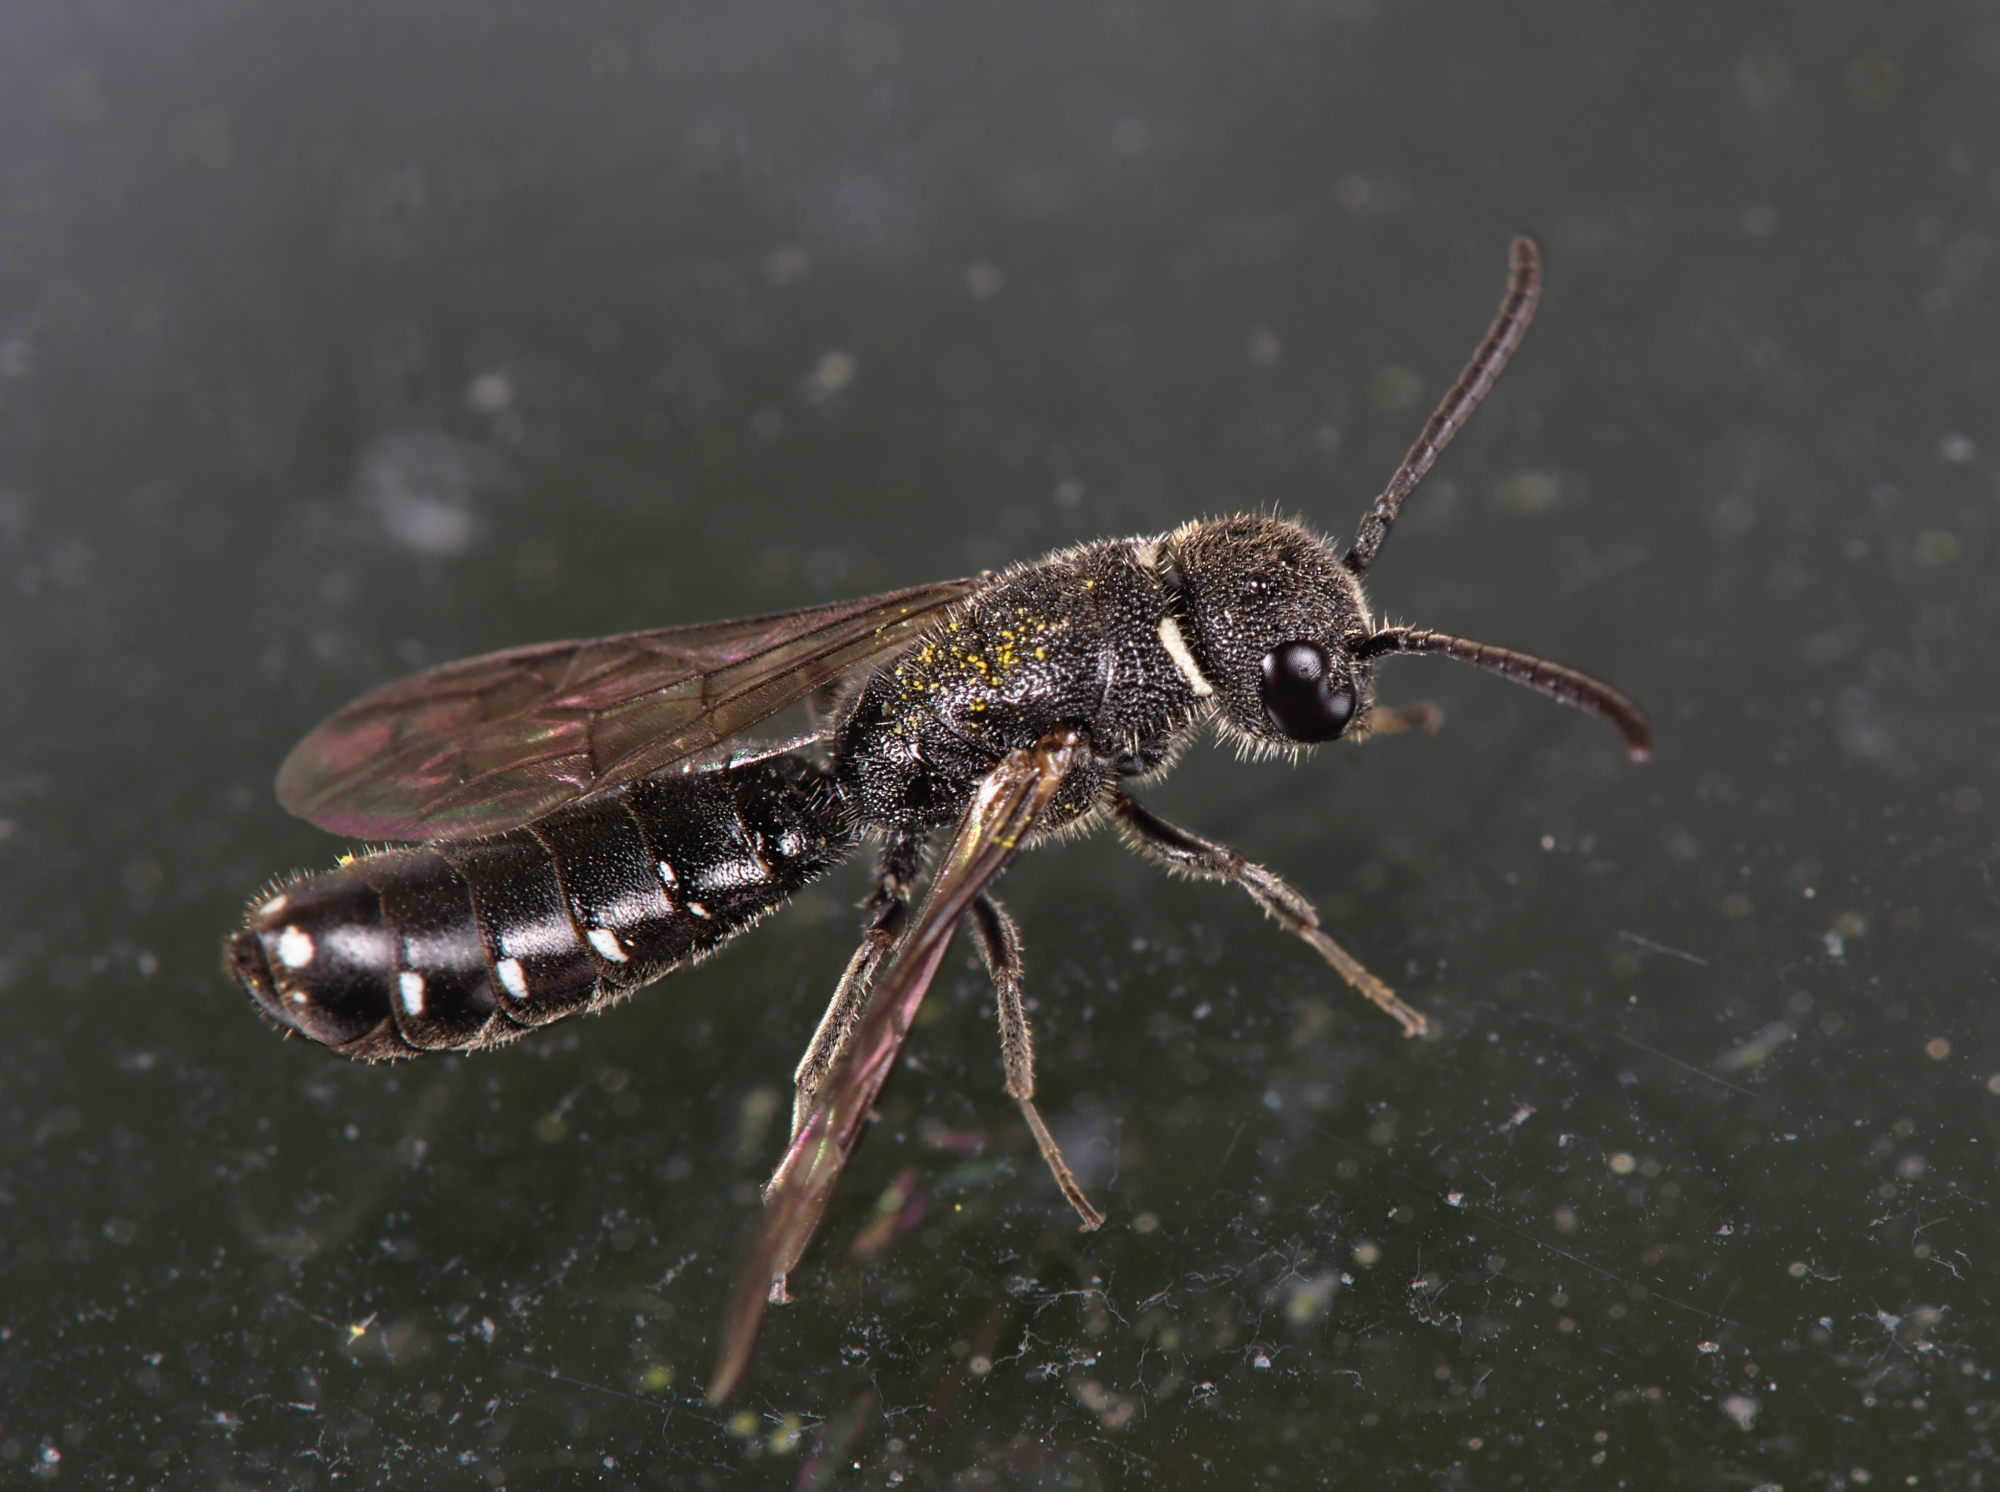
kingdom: Animalia
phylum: Arthropoda
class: Insecta
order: Hymenoptera
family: Sapygidae
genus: Sapygina
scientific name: Sapygina decemguttata
